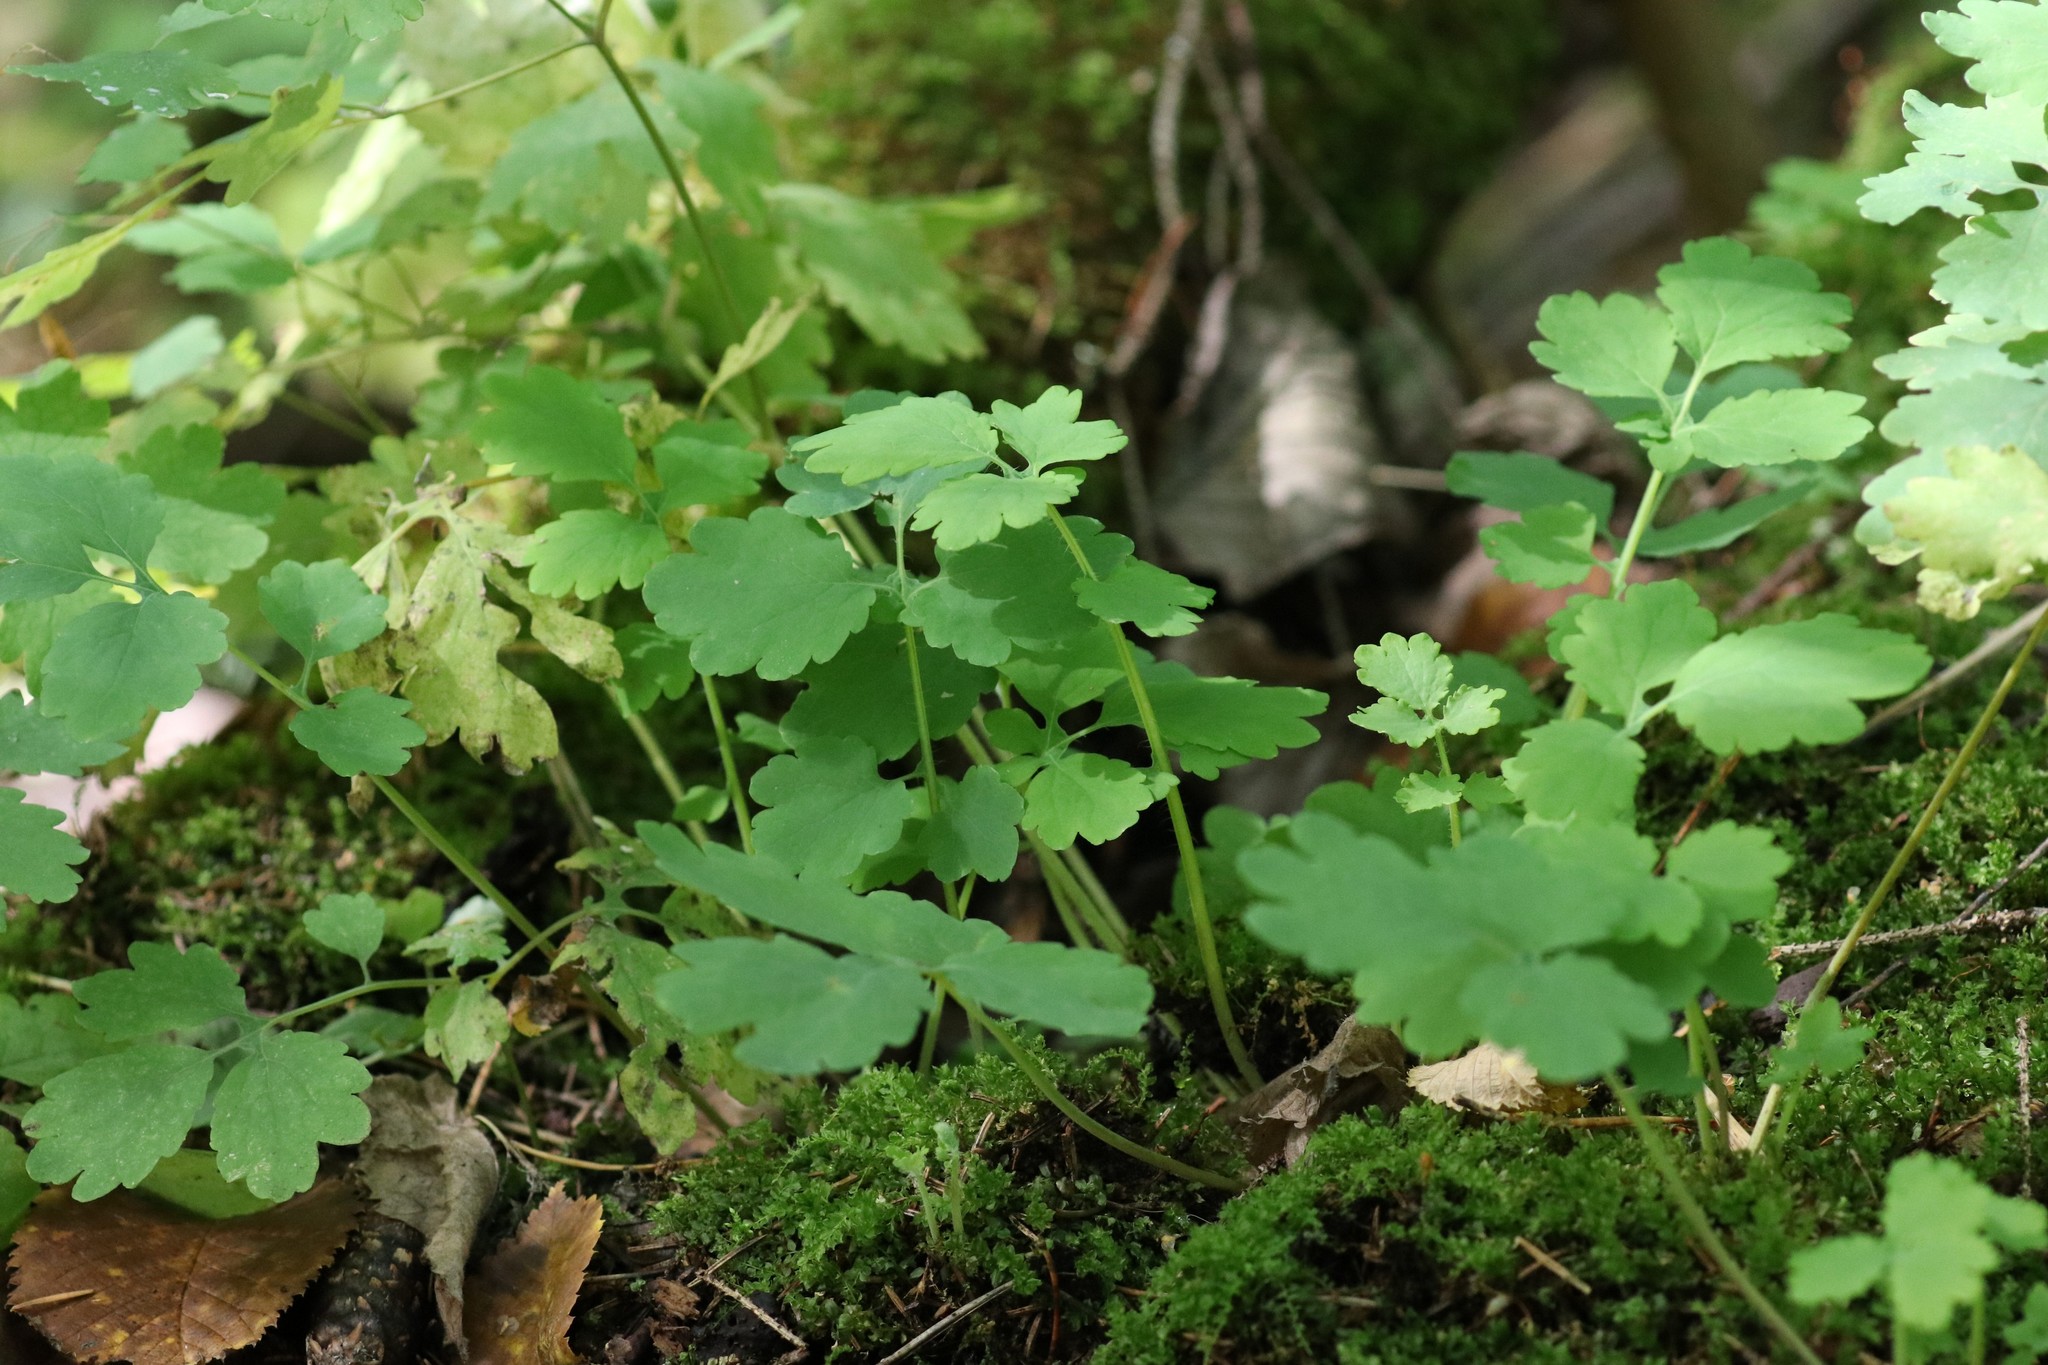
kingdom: Plantae
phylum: Tracheophyta
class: Magnoliopsida
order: Ranunculales
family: Papaveraceae
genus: Chelidonium
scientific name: Chelidonium majus
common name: Greater celandine
